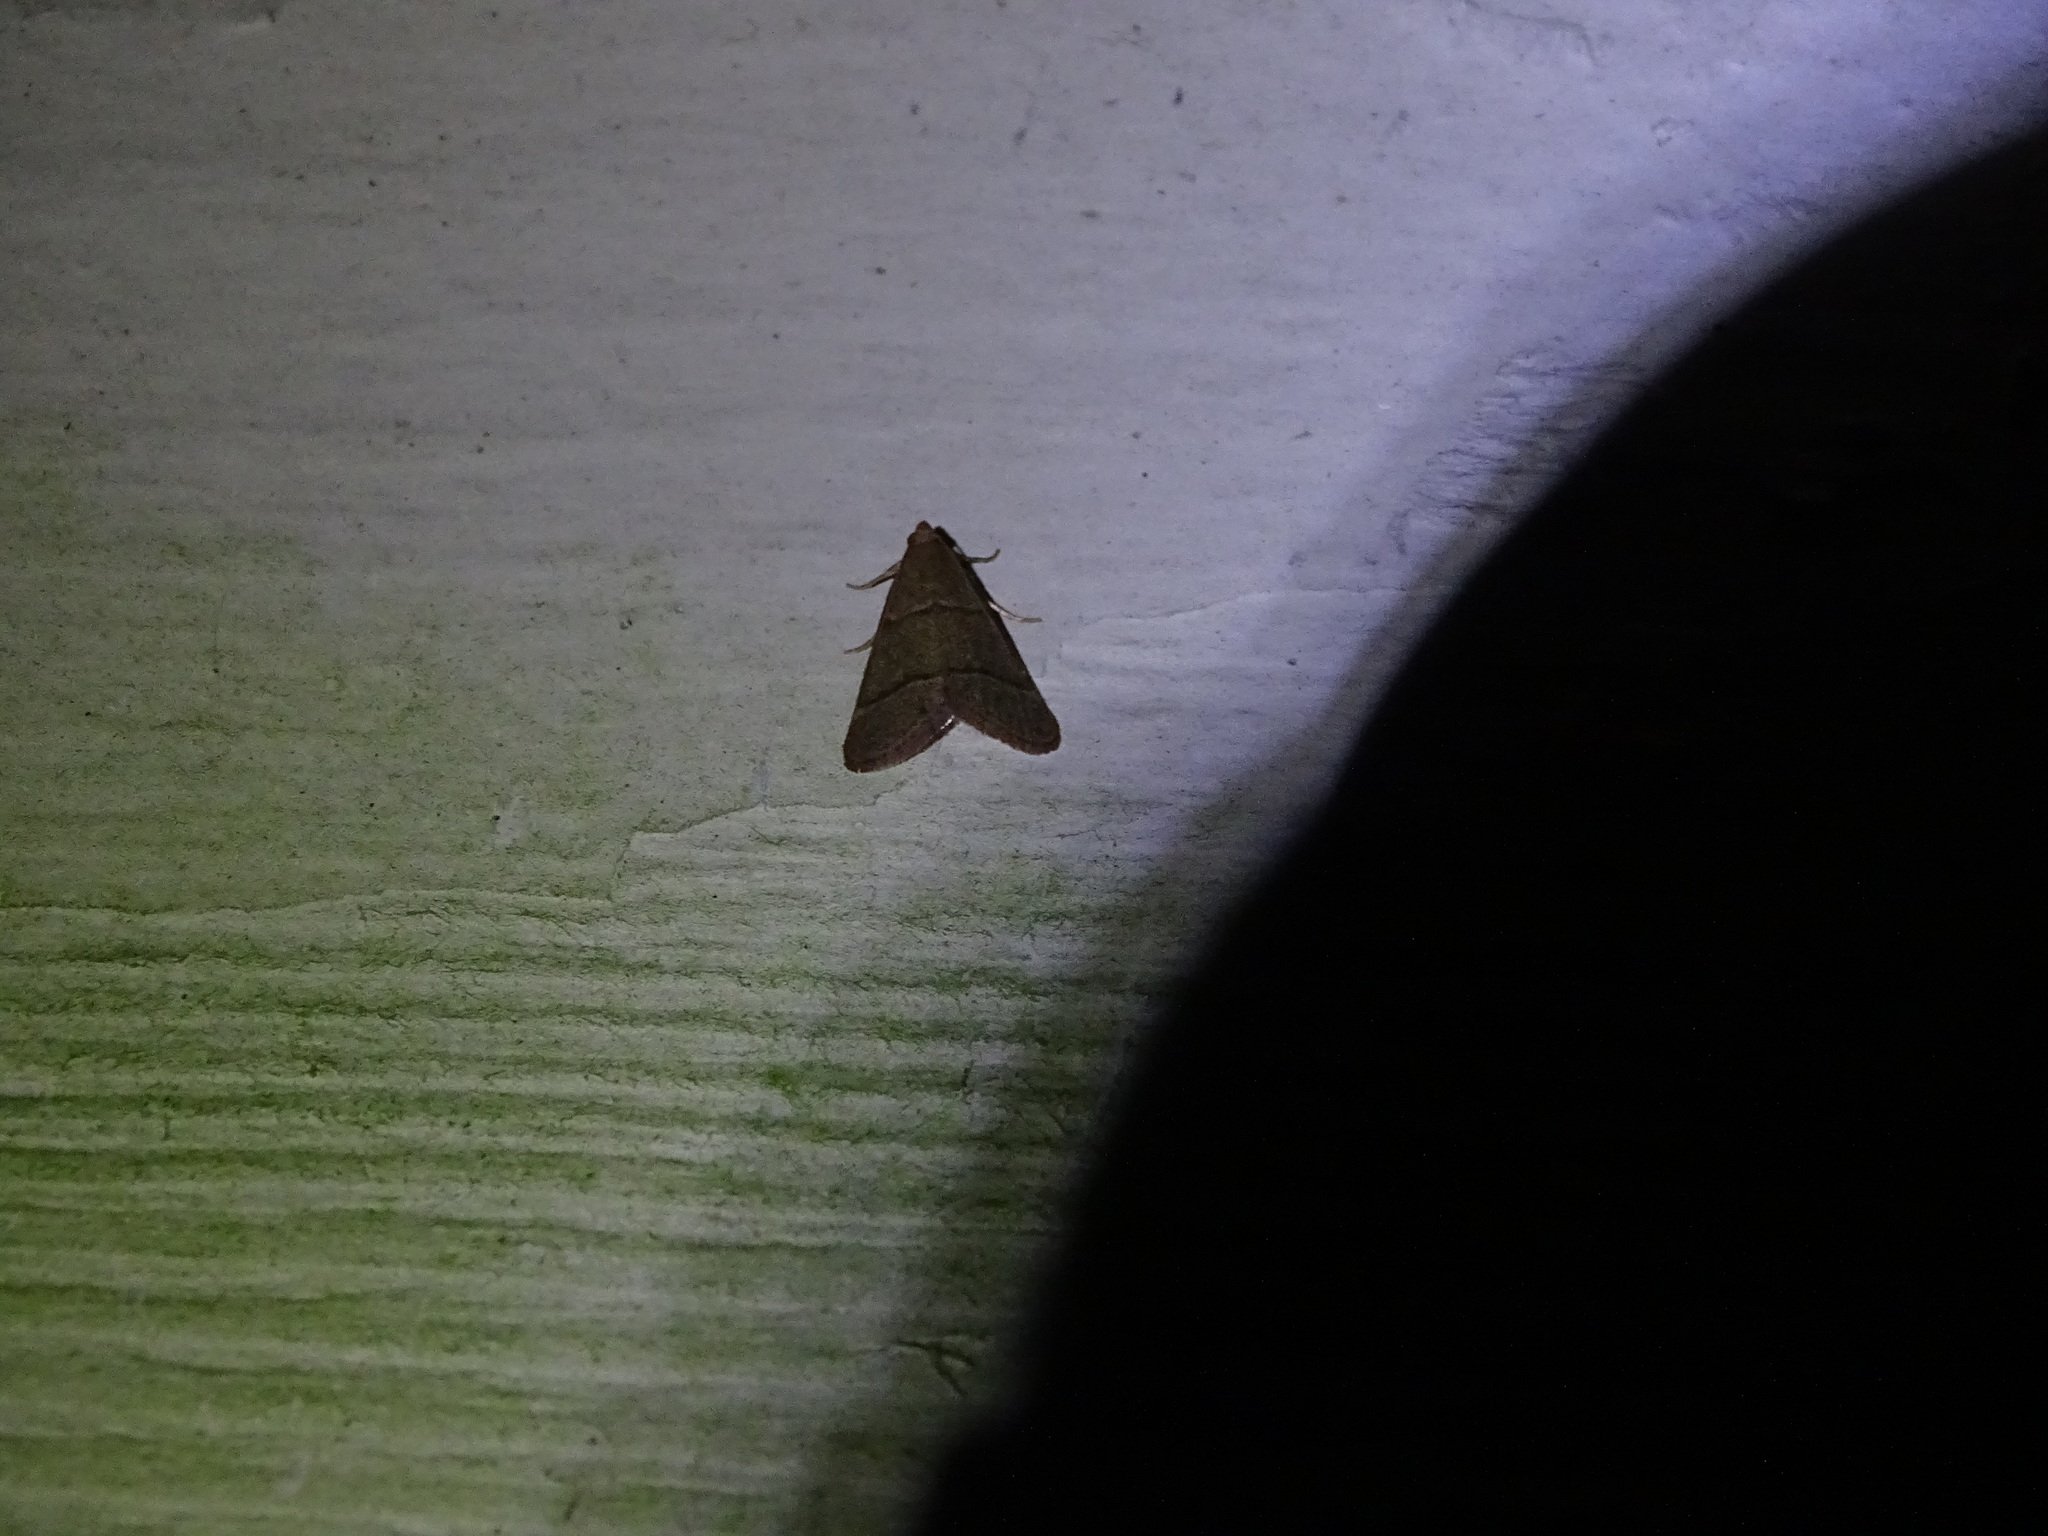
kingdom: Animalia
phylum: Arthropoda
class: Insecta
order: Lepidoptera
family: Pyralidae
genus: Hypsopygia
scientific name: Hypsopygia nostralis
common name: Southern hayworm moth
